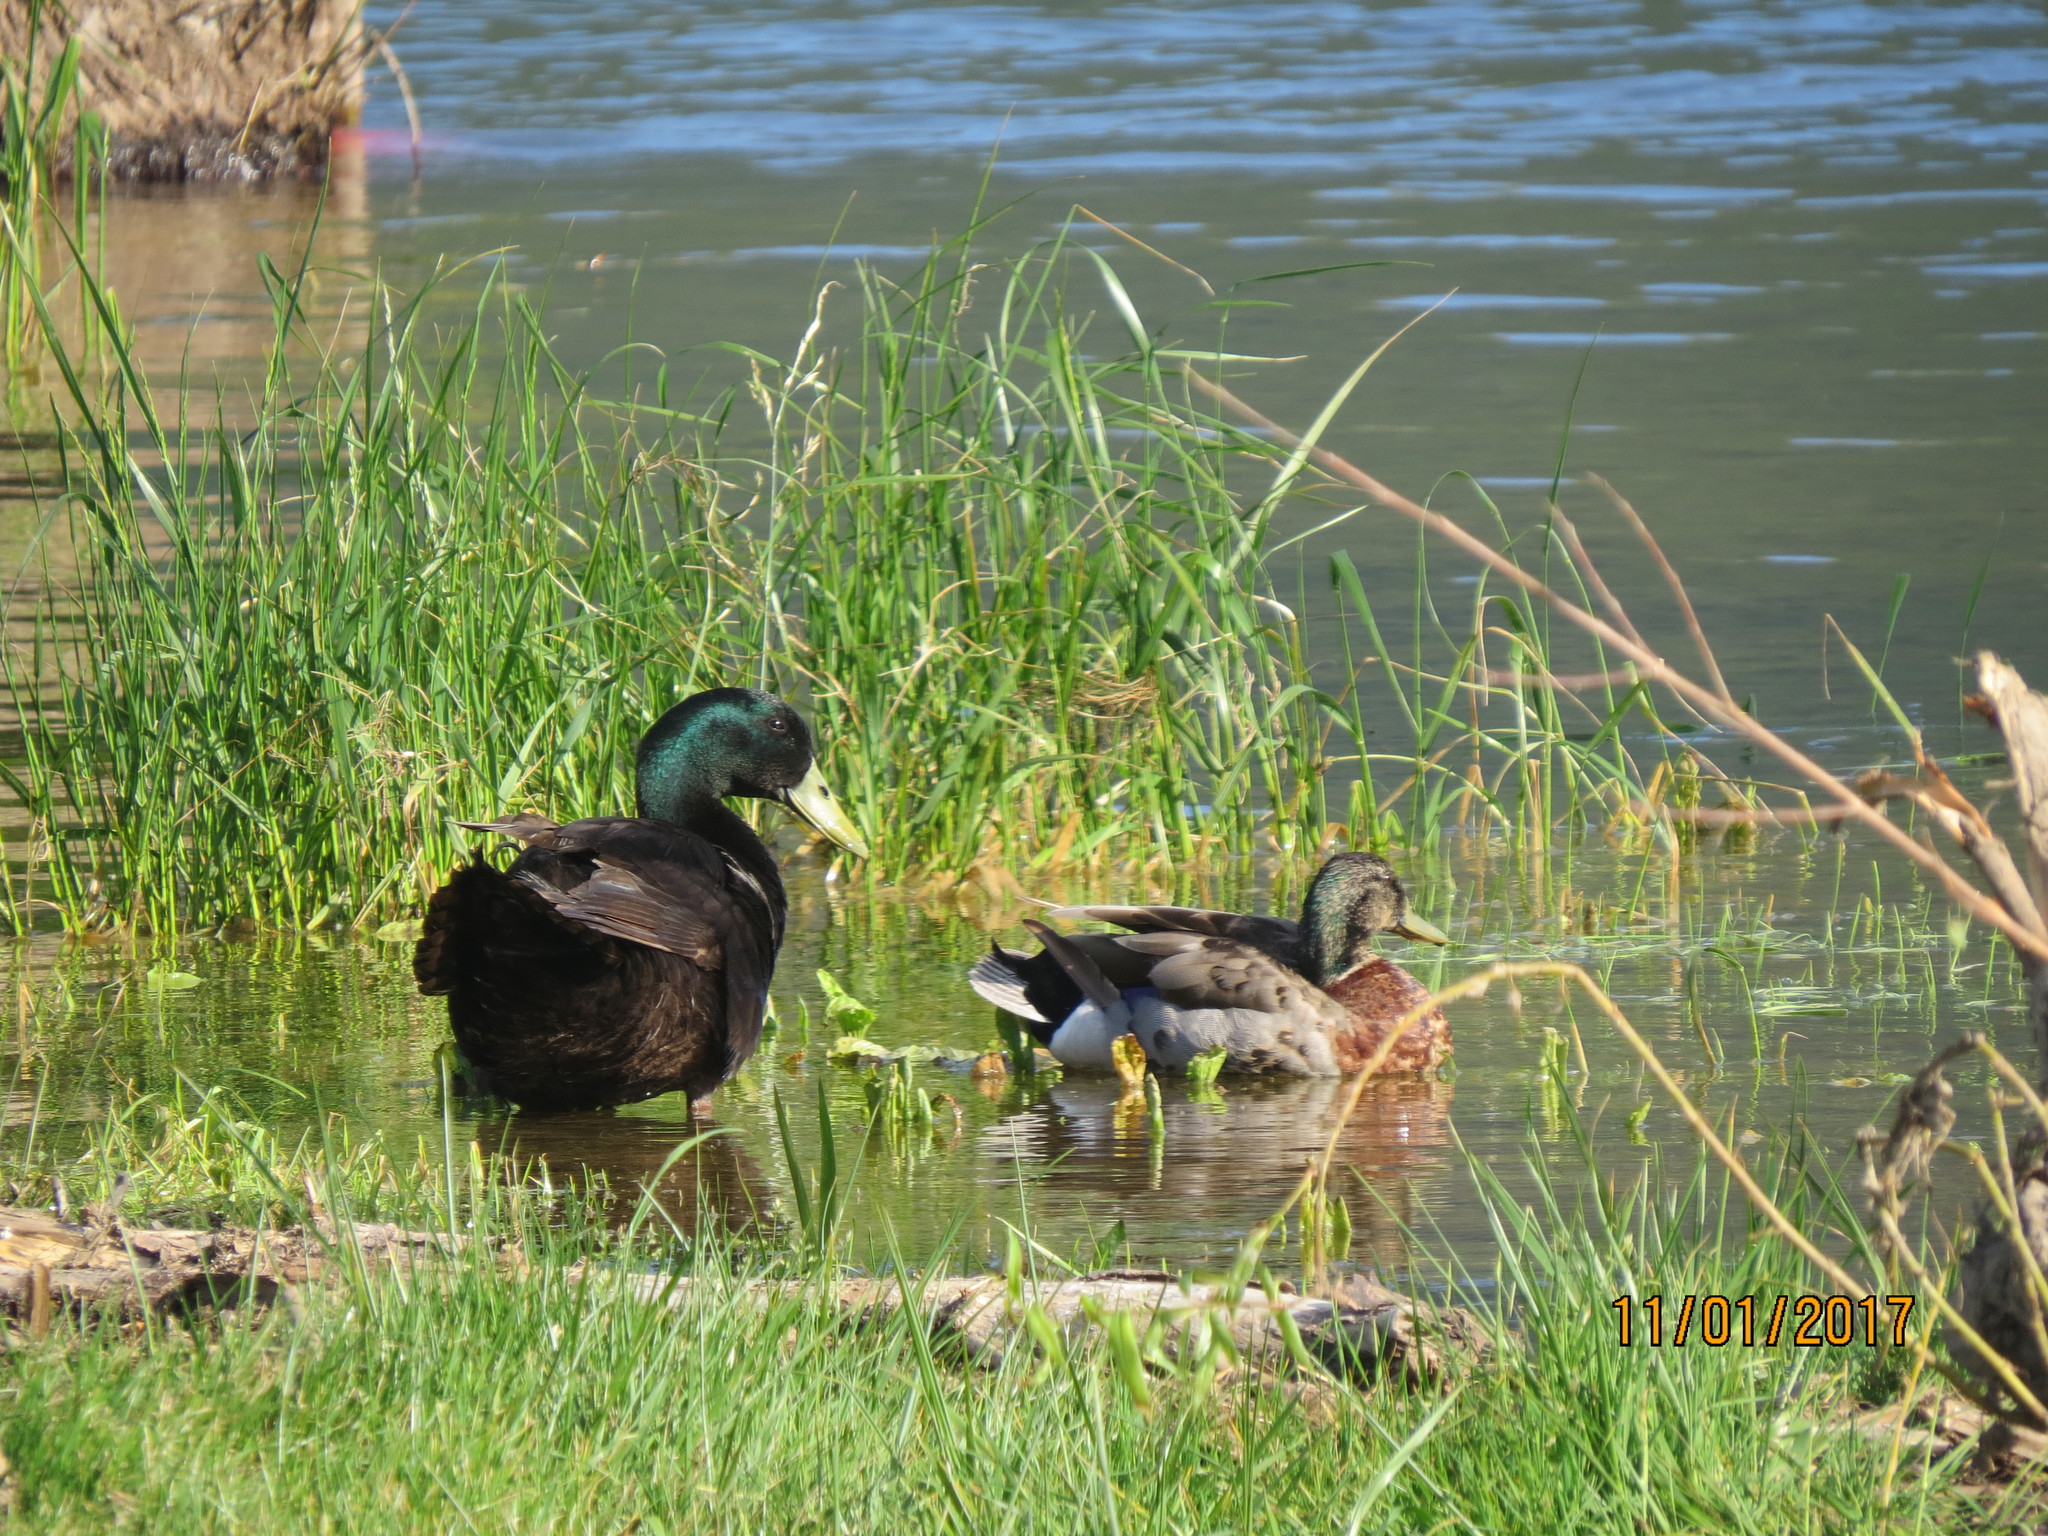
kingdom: Animalia
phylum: Chordata
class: Aves
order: Anseriformes
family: Anatidae
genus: Anas
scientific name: Anas platyrhynchos
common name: Mallard
